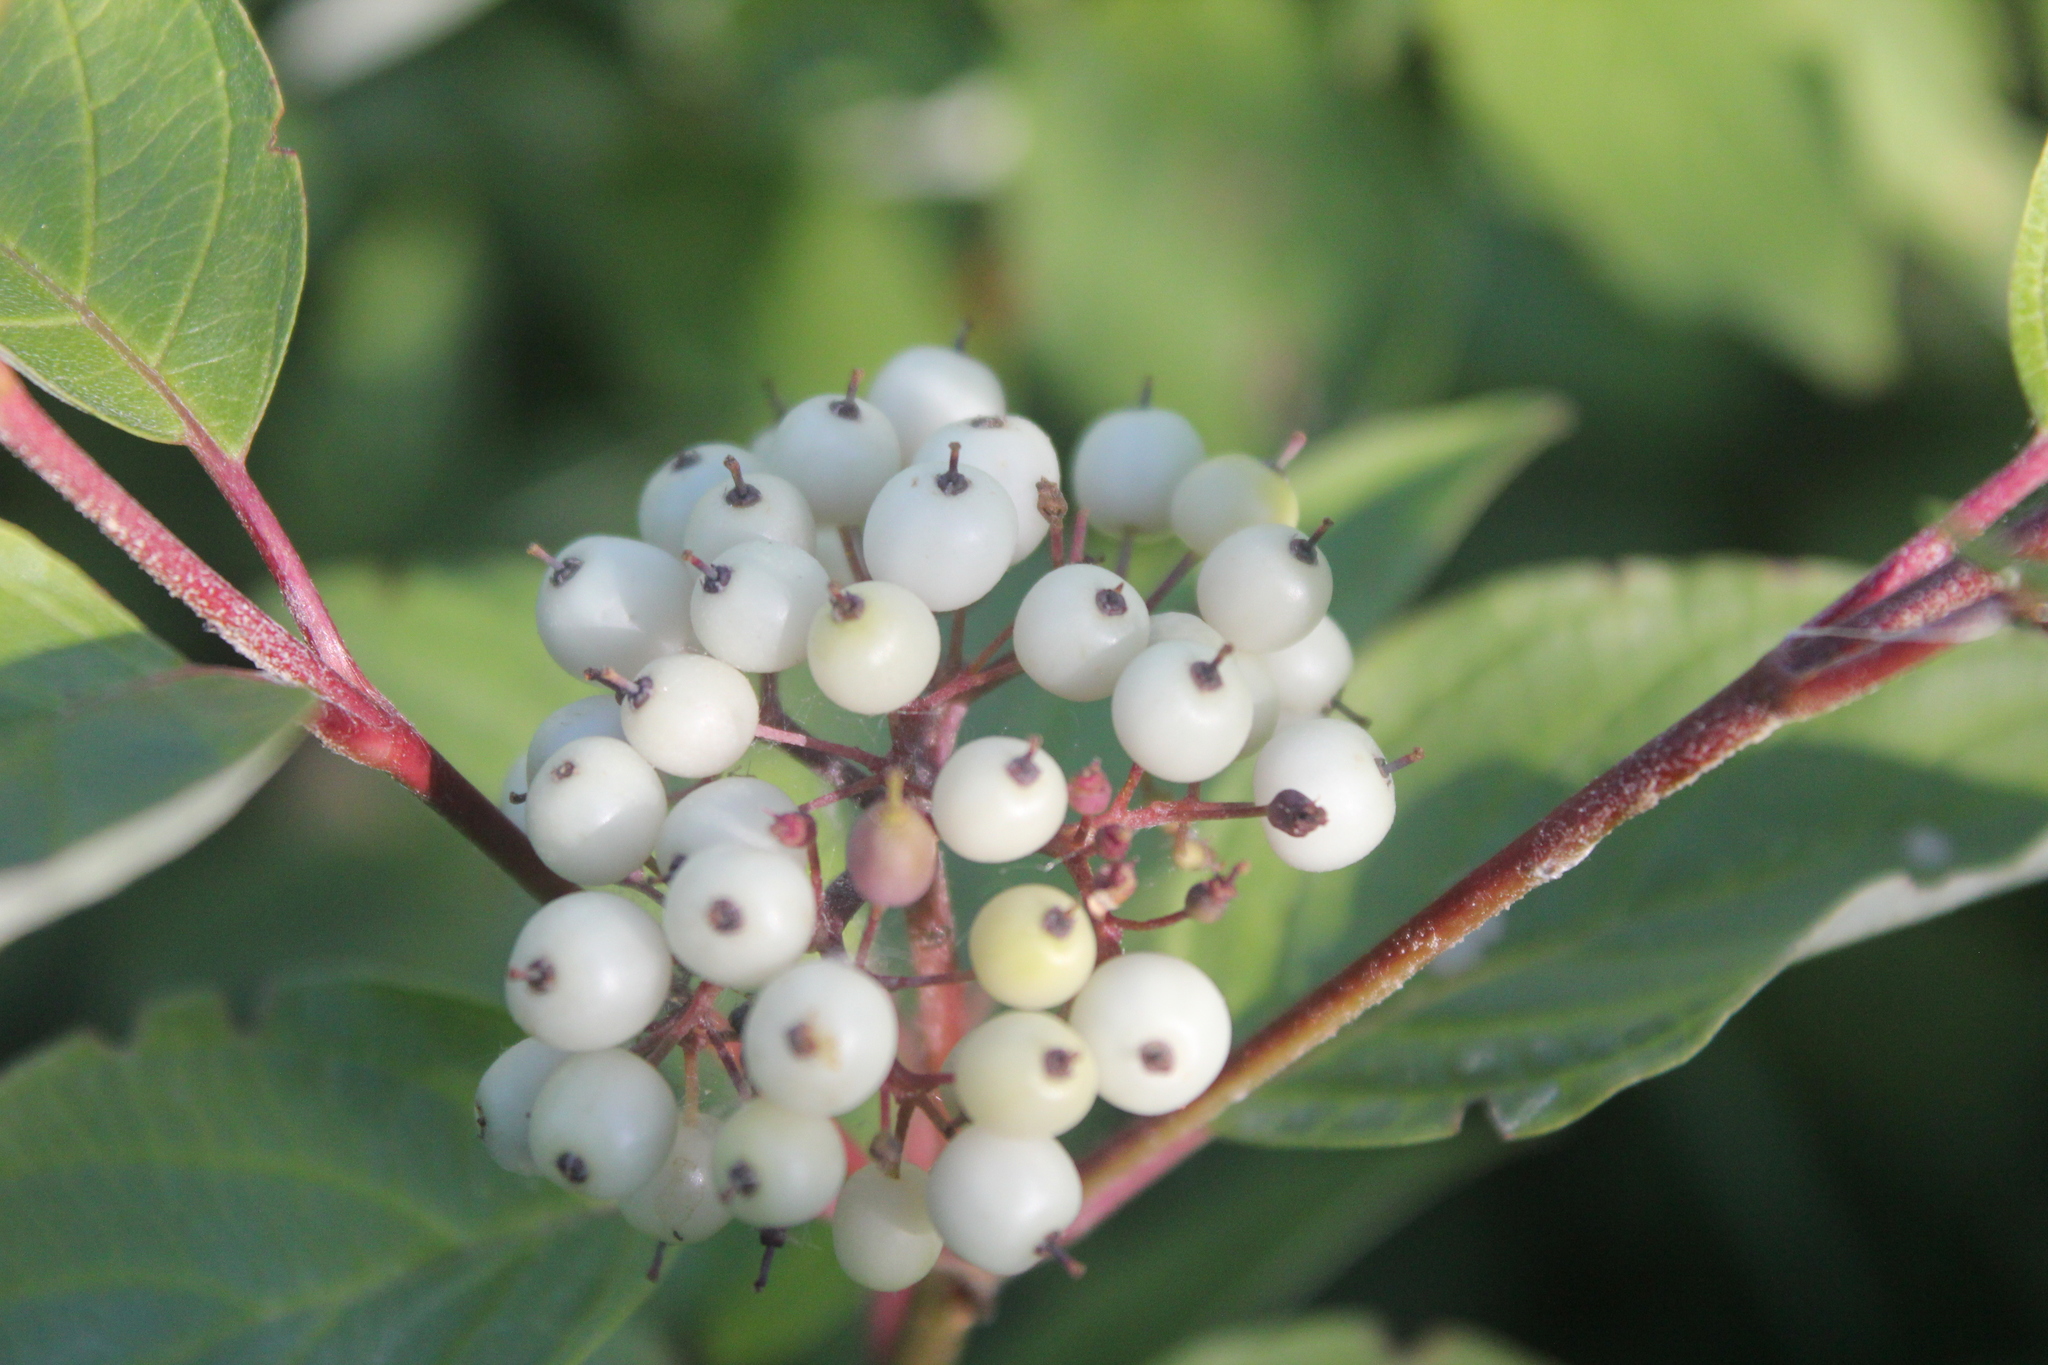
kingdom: Plantae
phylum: Tracheophyta
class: Magnoliopsida
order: Cornales
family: Cornaceae
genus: Cornus
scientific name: Cornus sericea
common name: Red-osier dogwood
